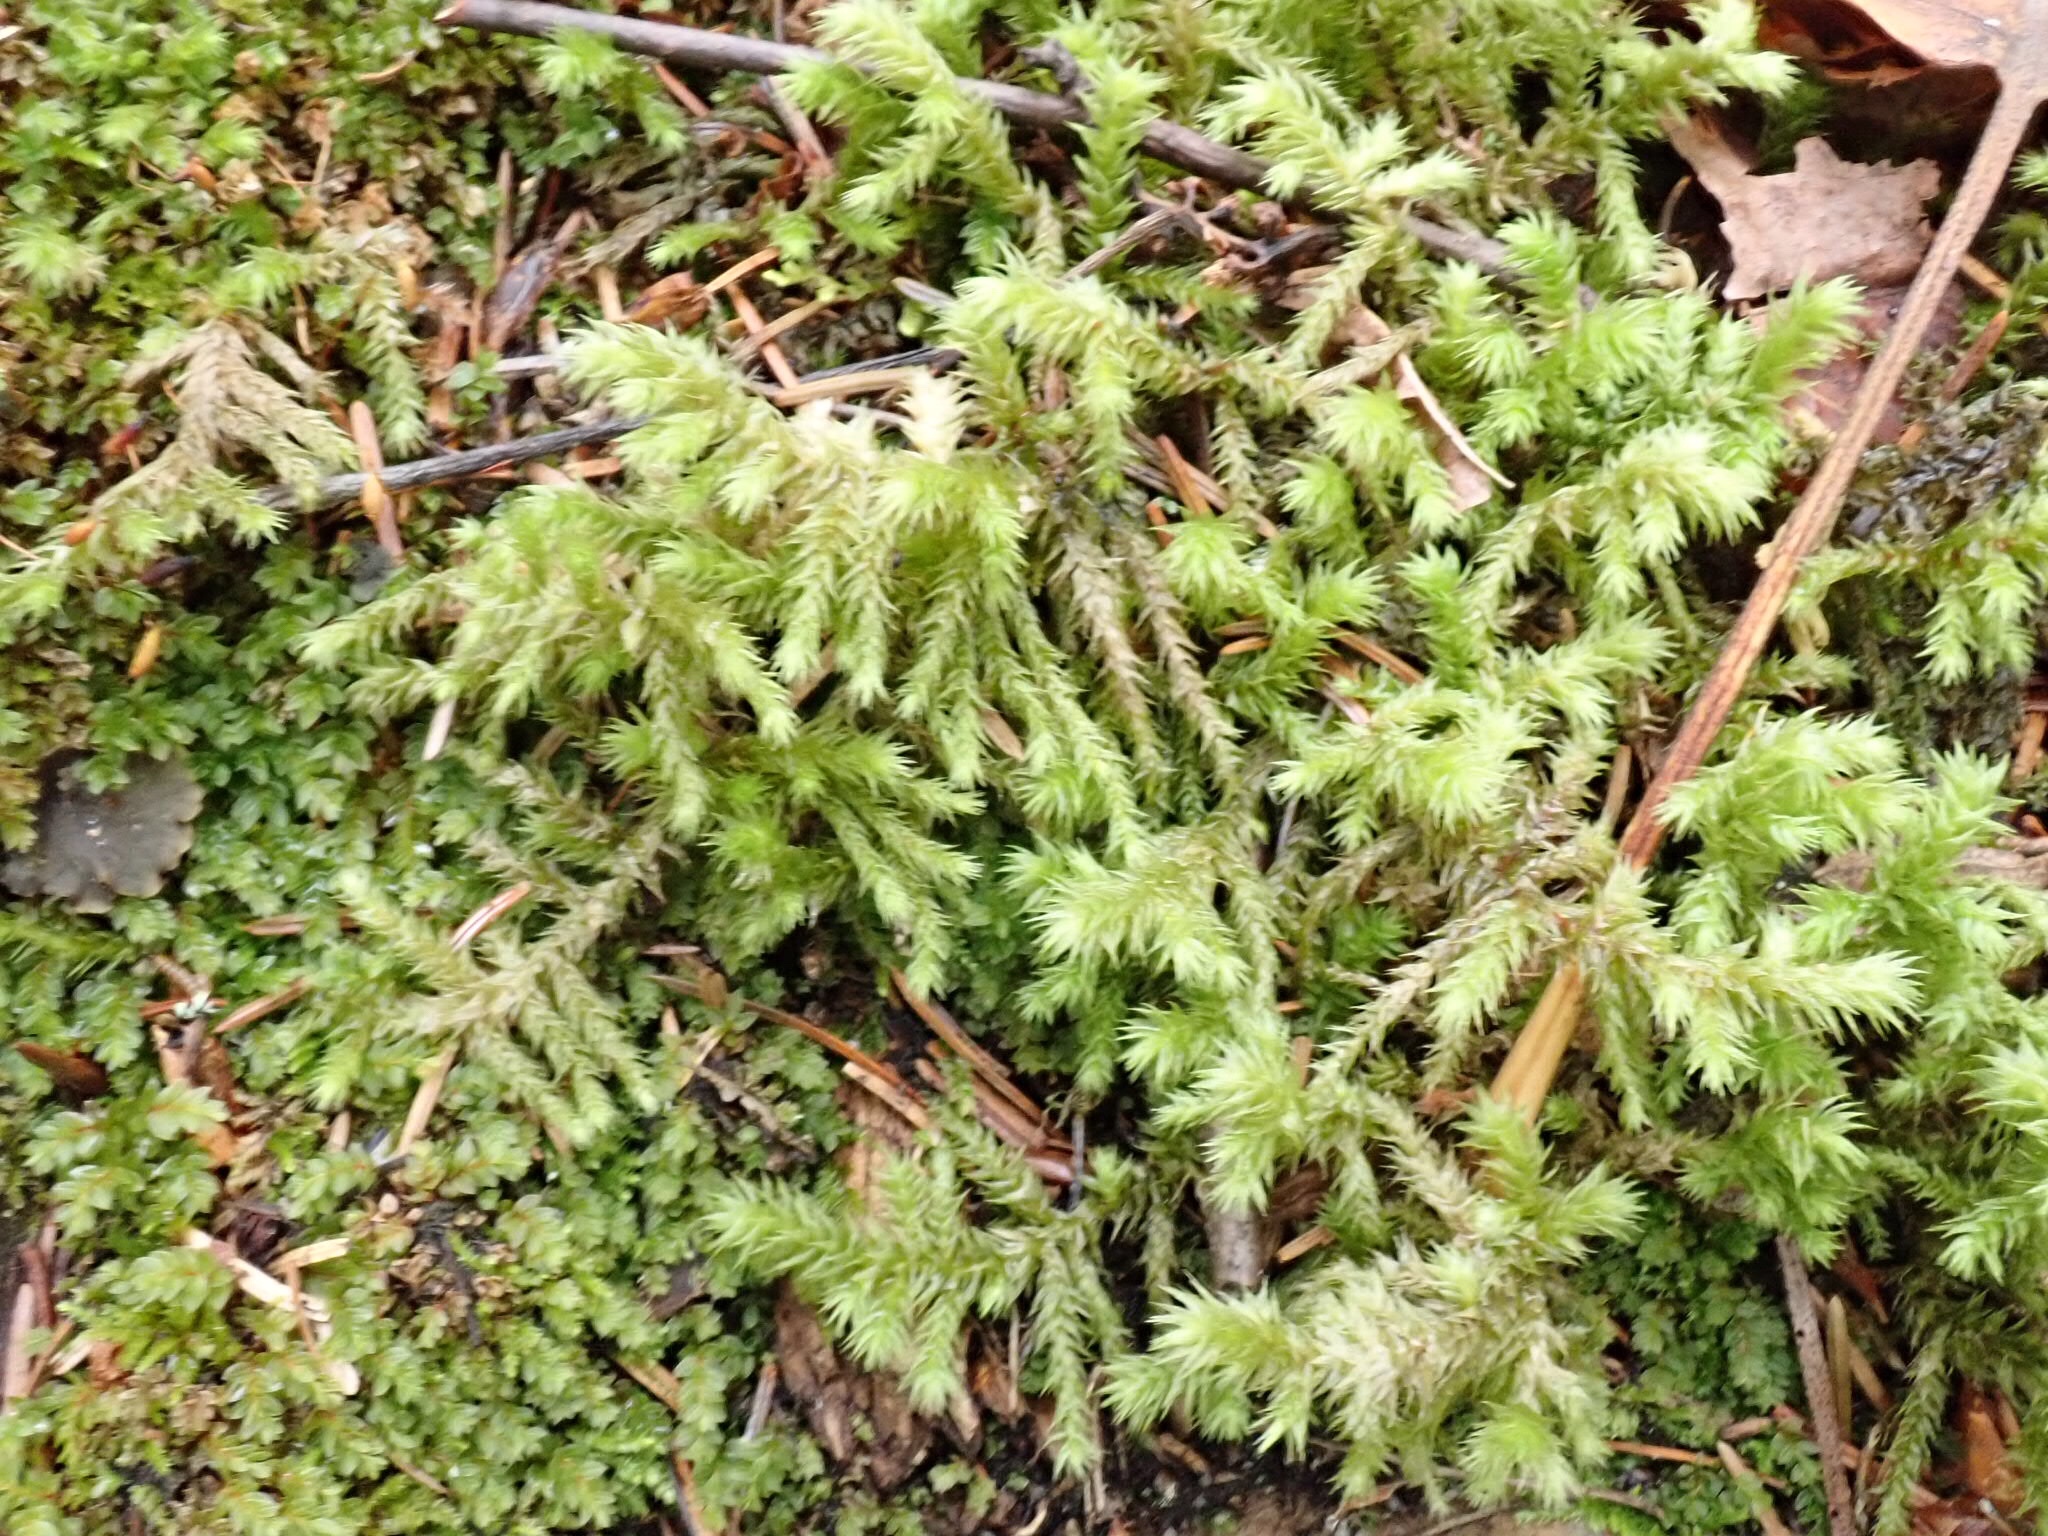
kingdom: Plantae
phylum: Bryophyta
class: Bryopsida
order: Hypnales
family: Hylocomiaceae
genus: Hylocomiadelphus
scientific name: Hylocomiadelphus triquetrus
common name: Rough goose neck moss
